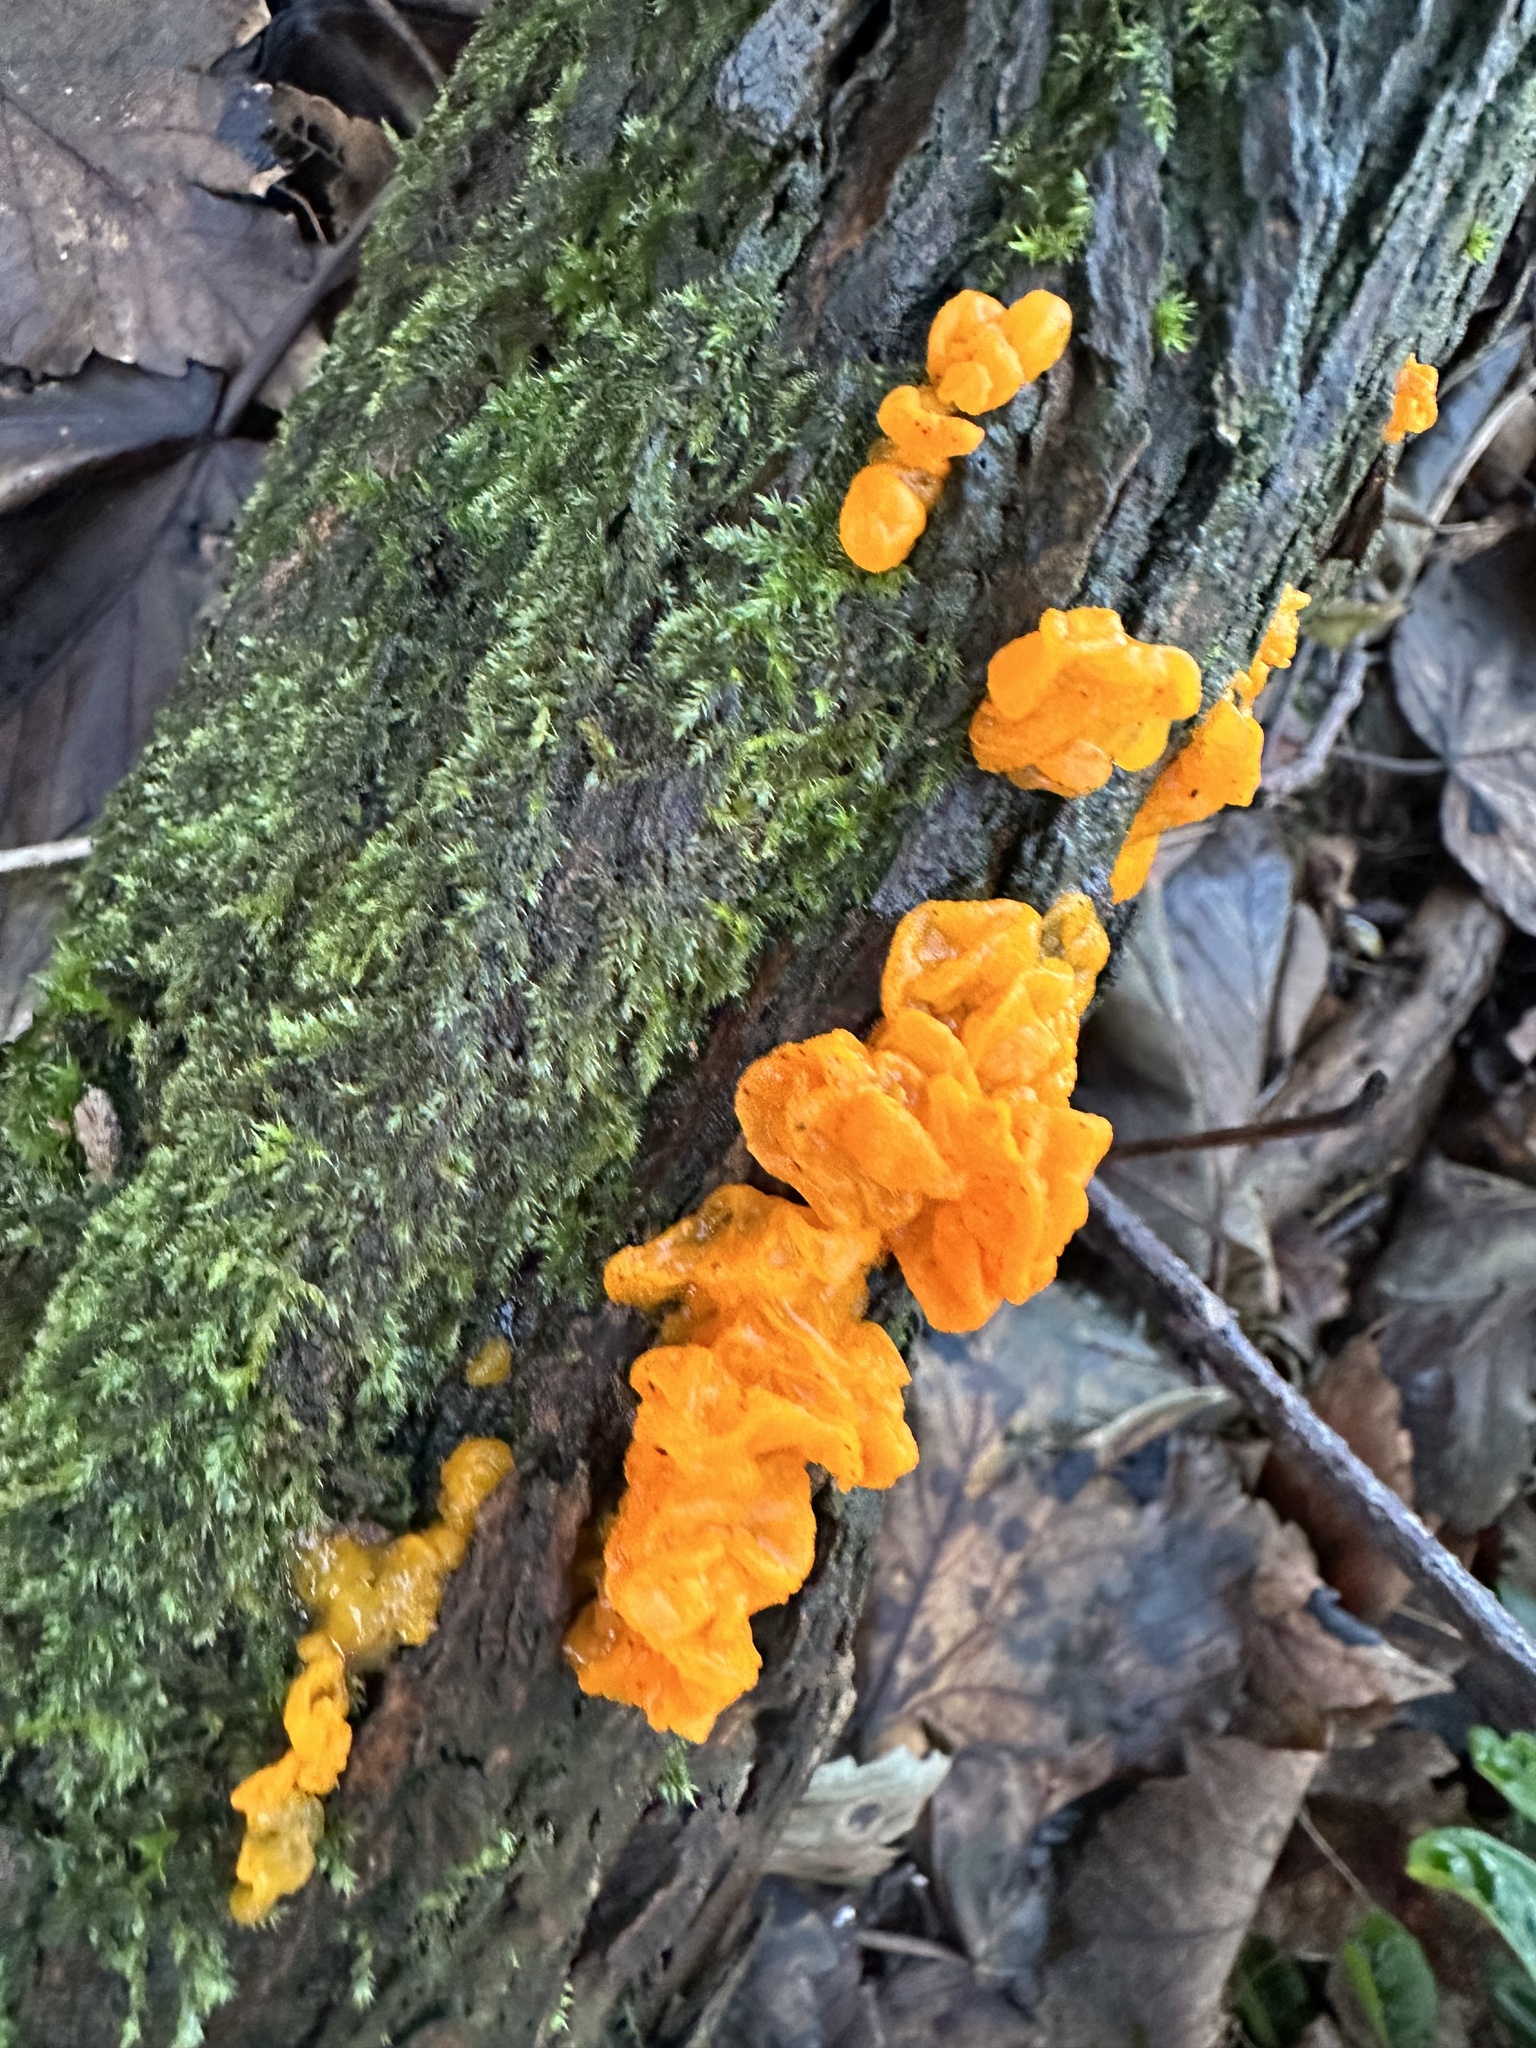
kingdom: Fungi
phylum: Basidiomycota
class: Tremellomycetes
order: Tremellales
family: Tremellaceae
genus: Tremella
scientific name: Tremella mesenterica
